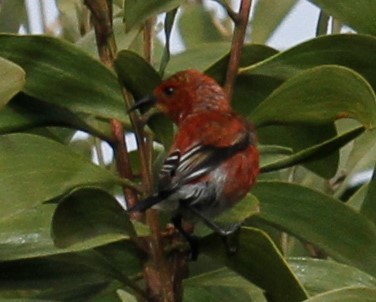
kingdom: Animalia
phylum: Chordata
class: Aves
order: Passeriformes
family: Fringillidae
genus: Himatione
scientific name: Himatione sanguinea
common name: Apapane
